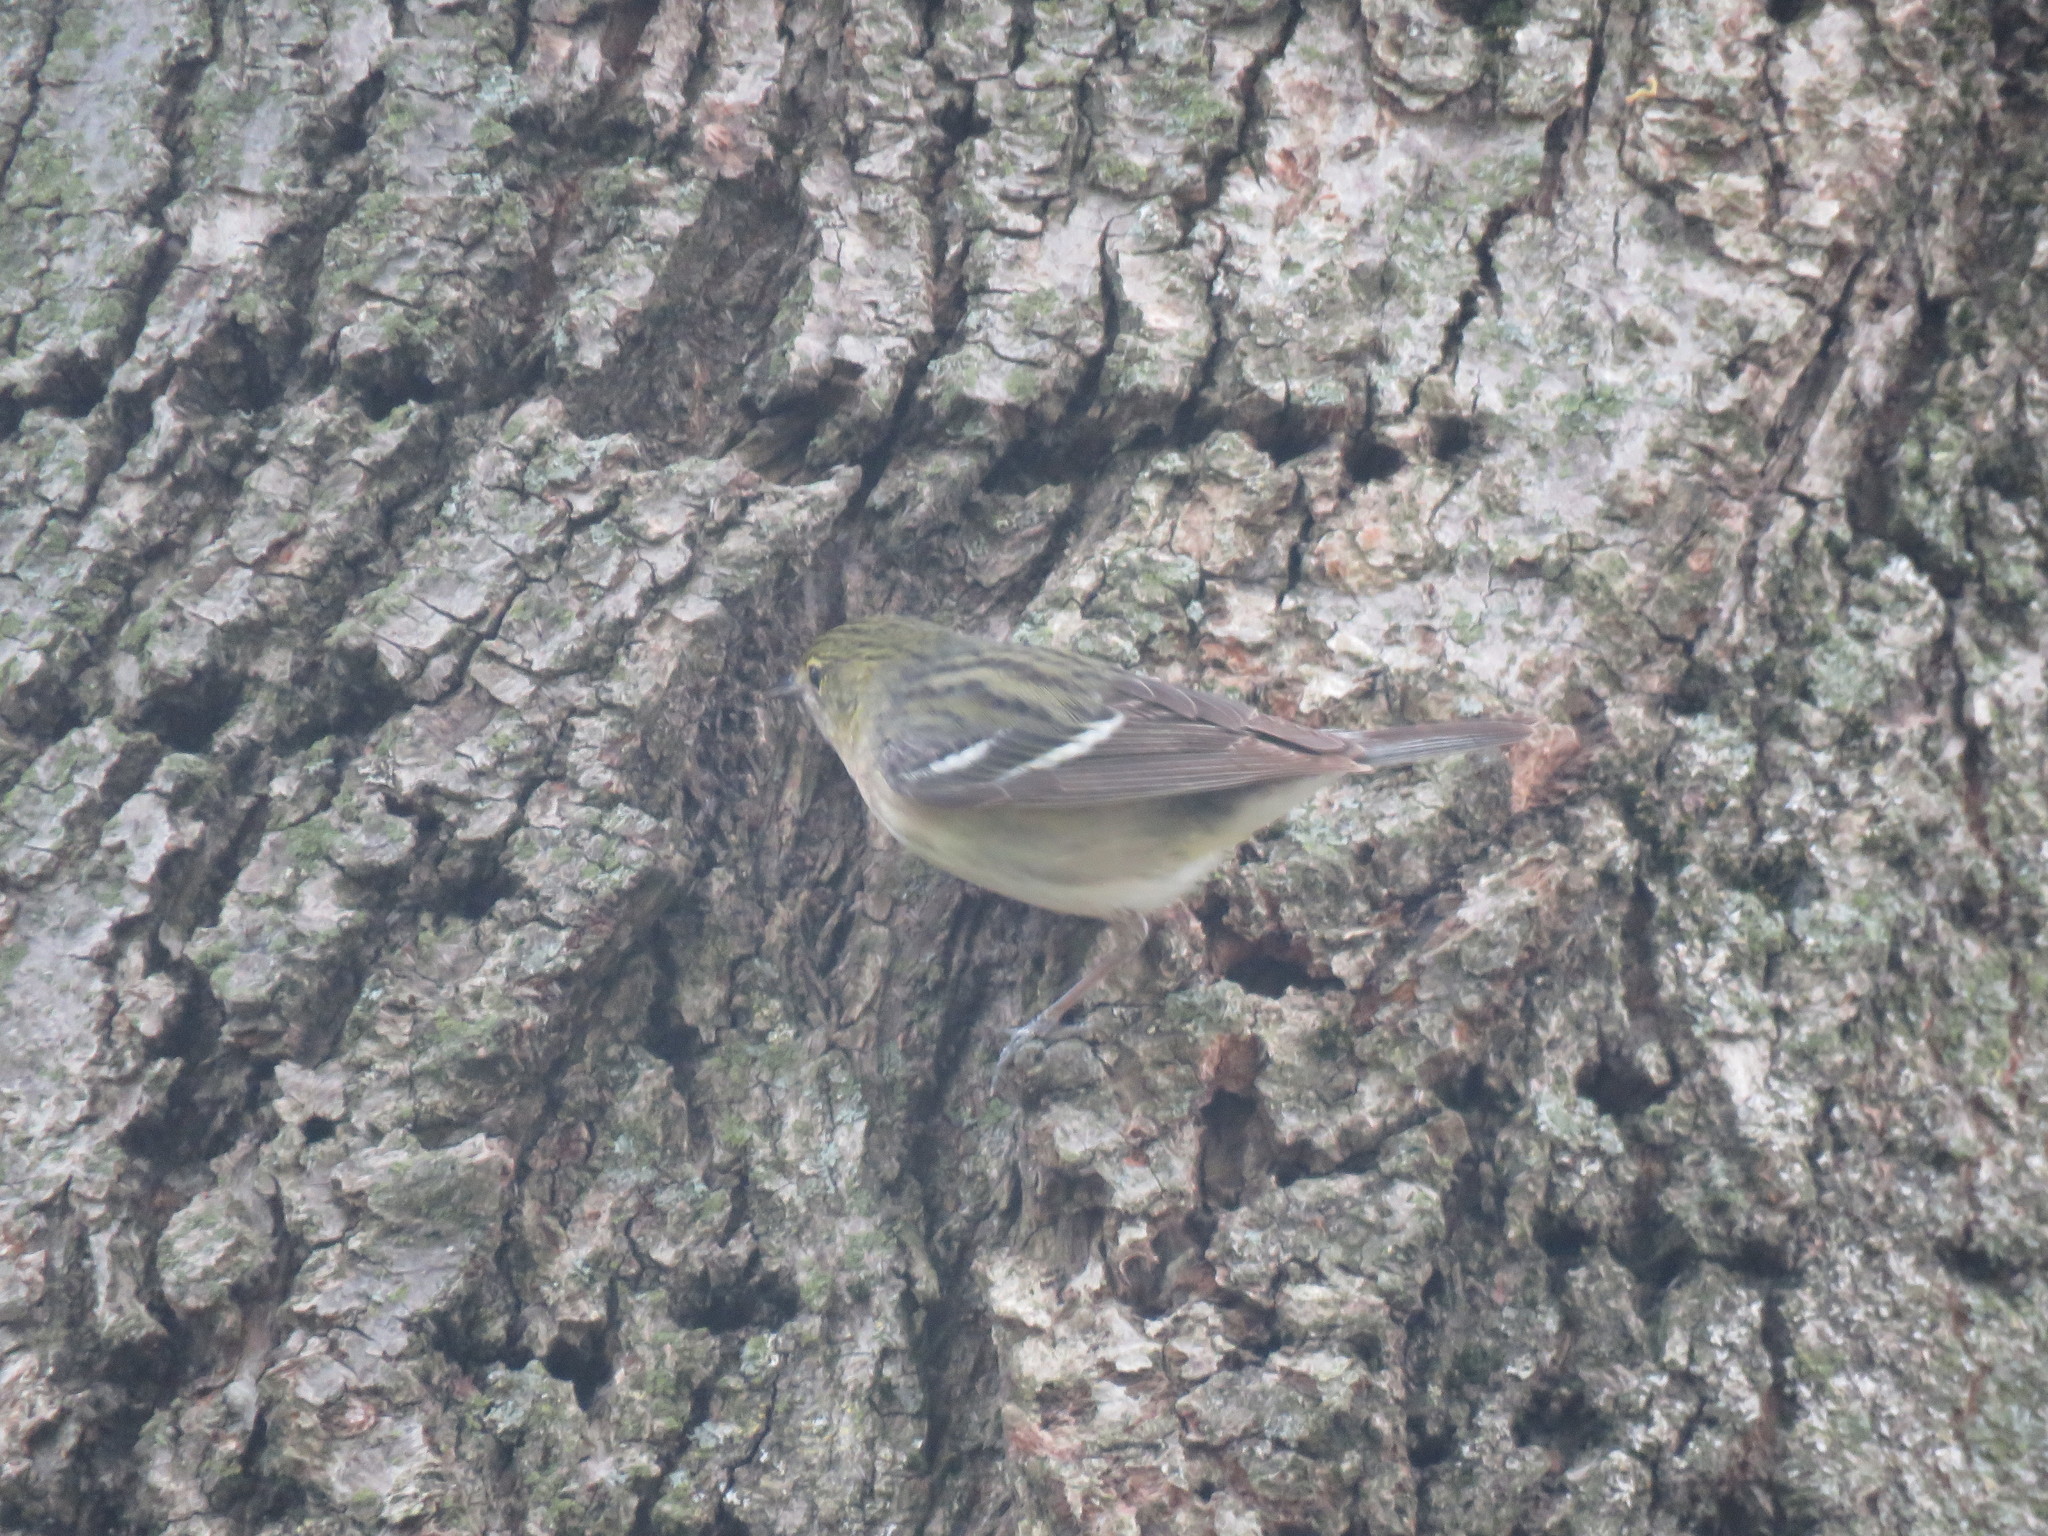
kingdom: Animalia
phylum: Chordata
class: Aves
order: Passeriformes
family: Parulidae
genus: Setophaga
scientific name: Setophaga castanea
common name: Bay-breasted warbler
